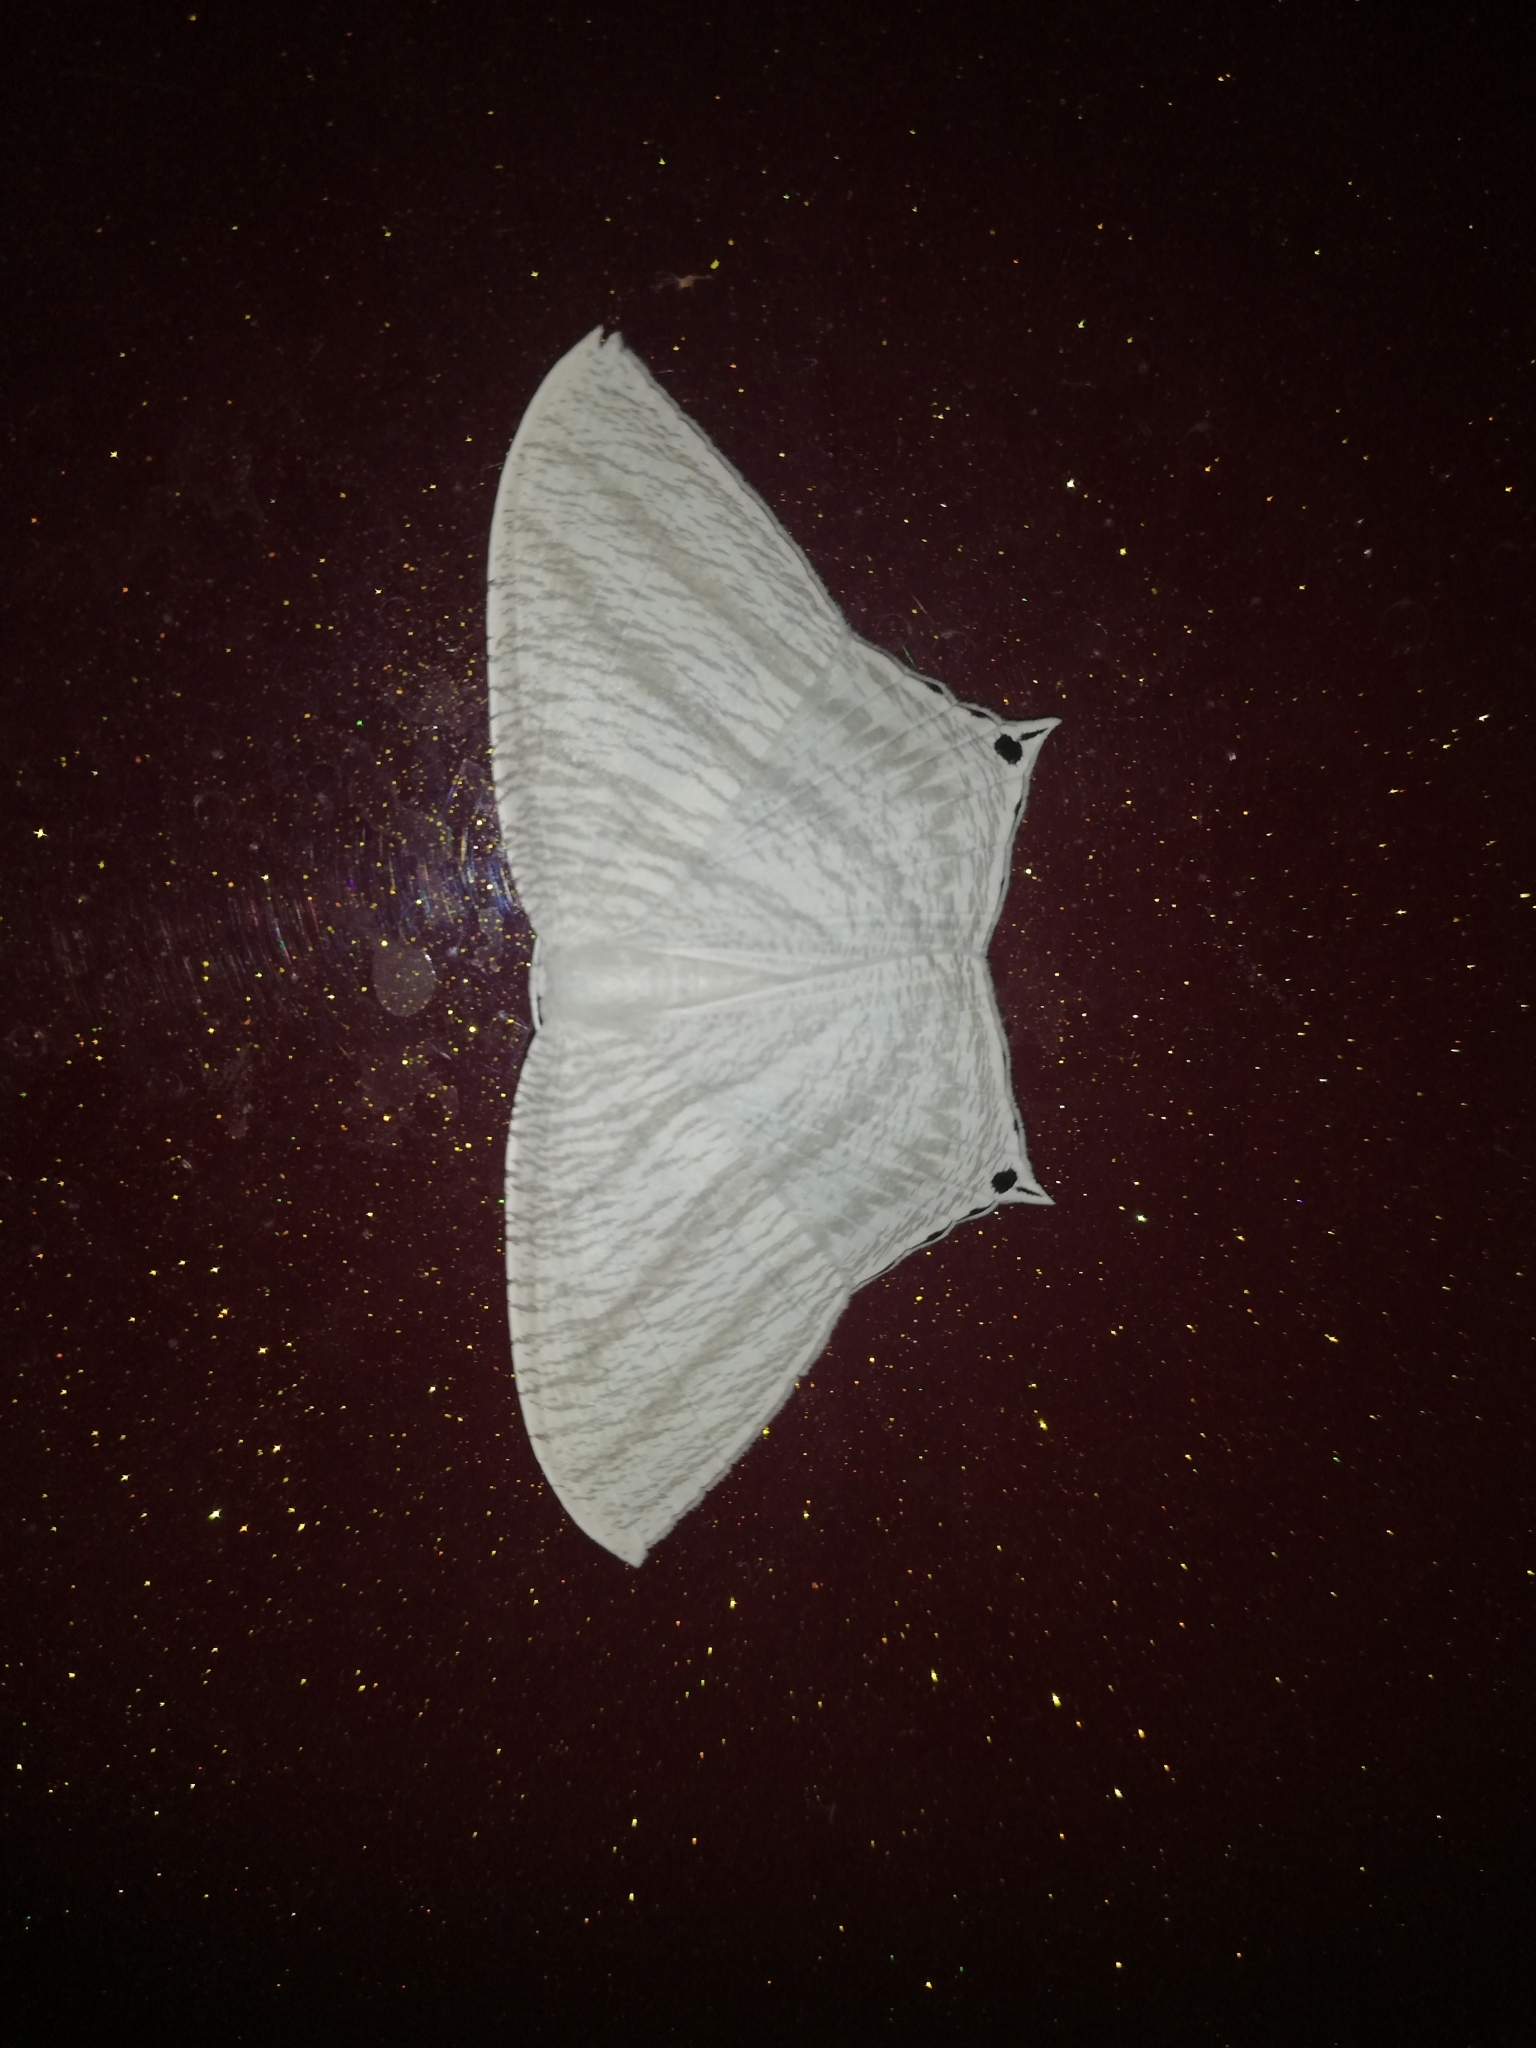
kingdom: Animalia
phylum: Arthropoda
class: Insecta
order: Lepidoptera
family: Uraniidae
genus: Micronia
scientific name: Micronia aculeata
